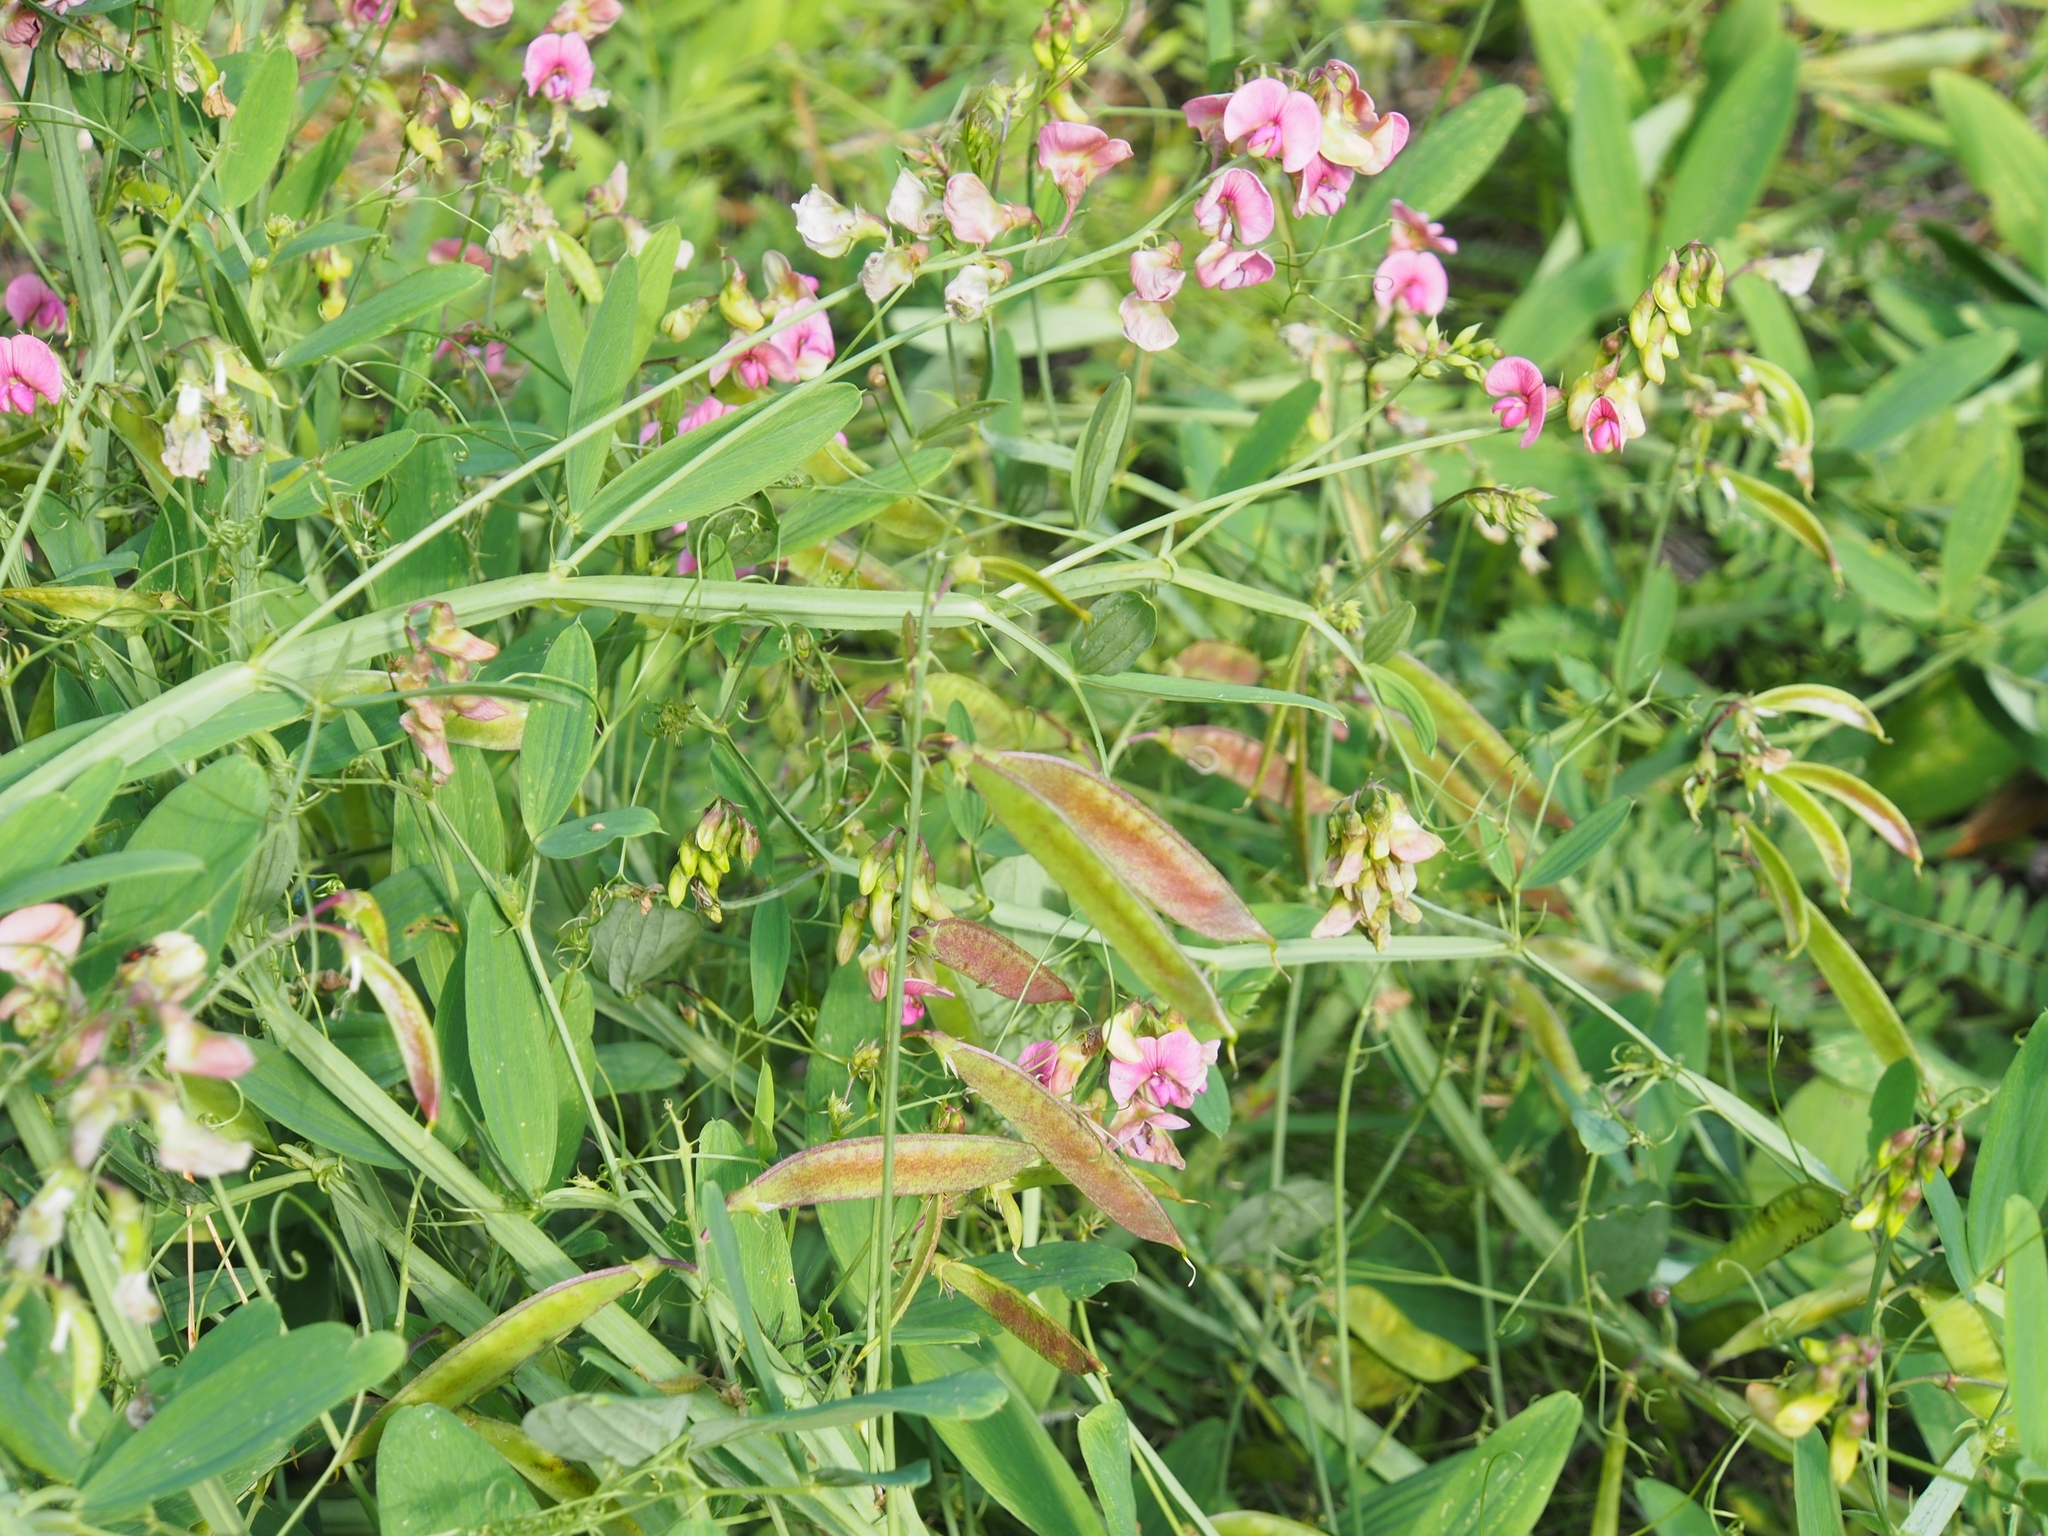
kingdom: Plantae
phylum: Tracheophyta
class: Magnoliopsida
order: Fabales
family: Fabaceae
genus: Lathyrus
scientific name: Lathyrus sylvestris
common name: Flat pea
